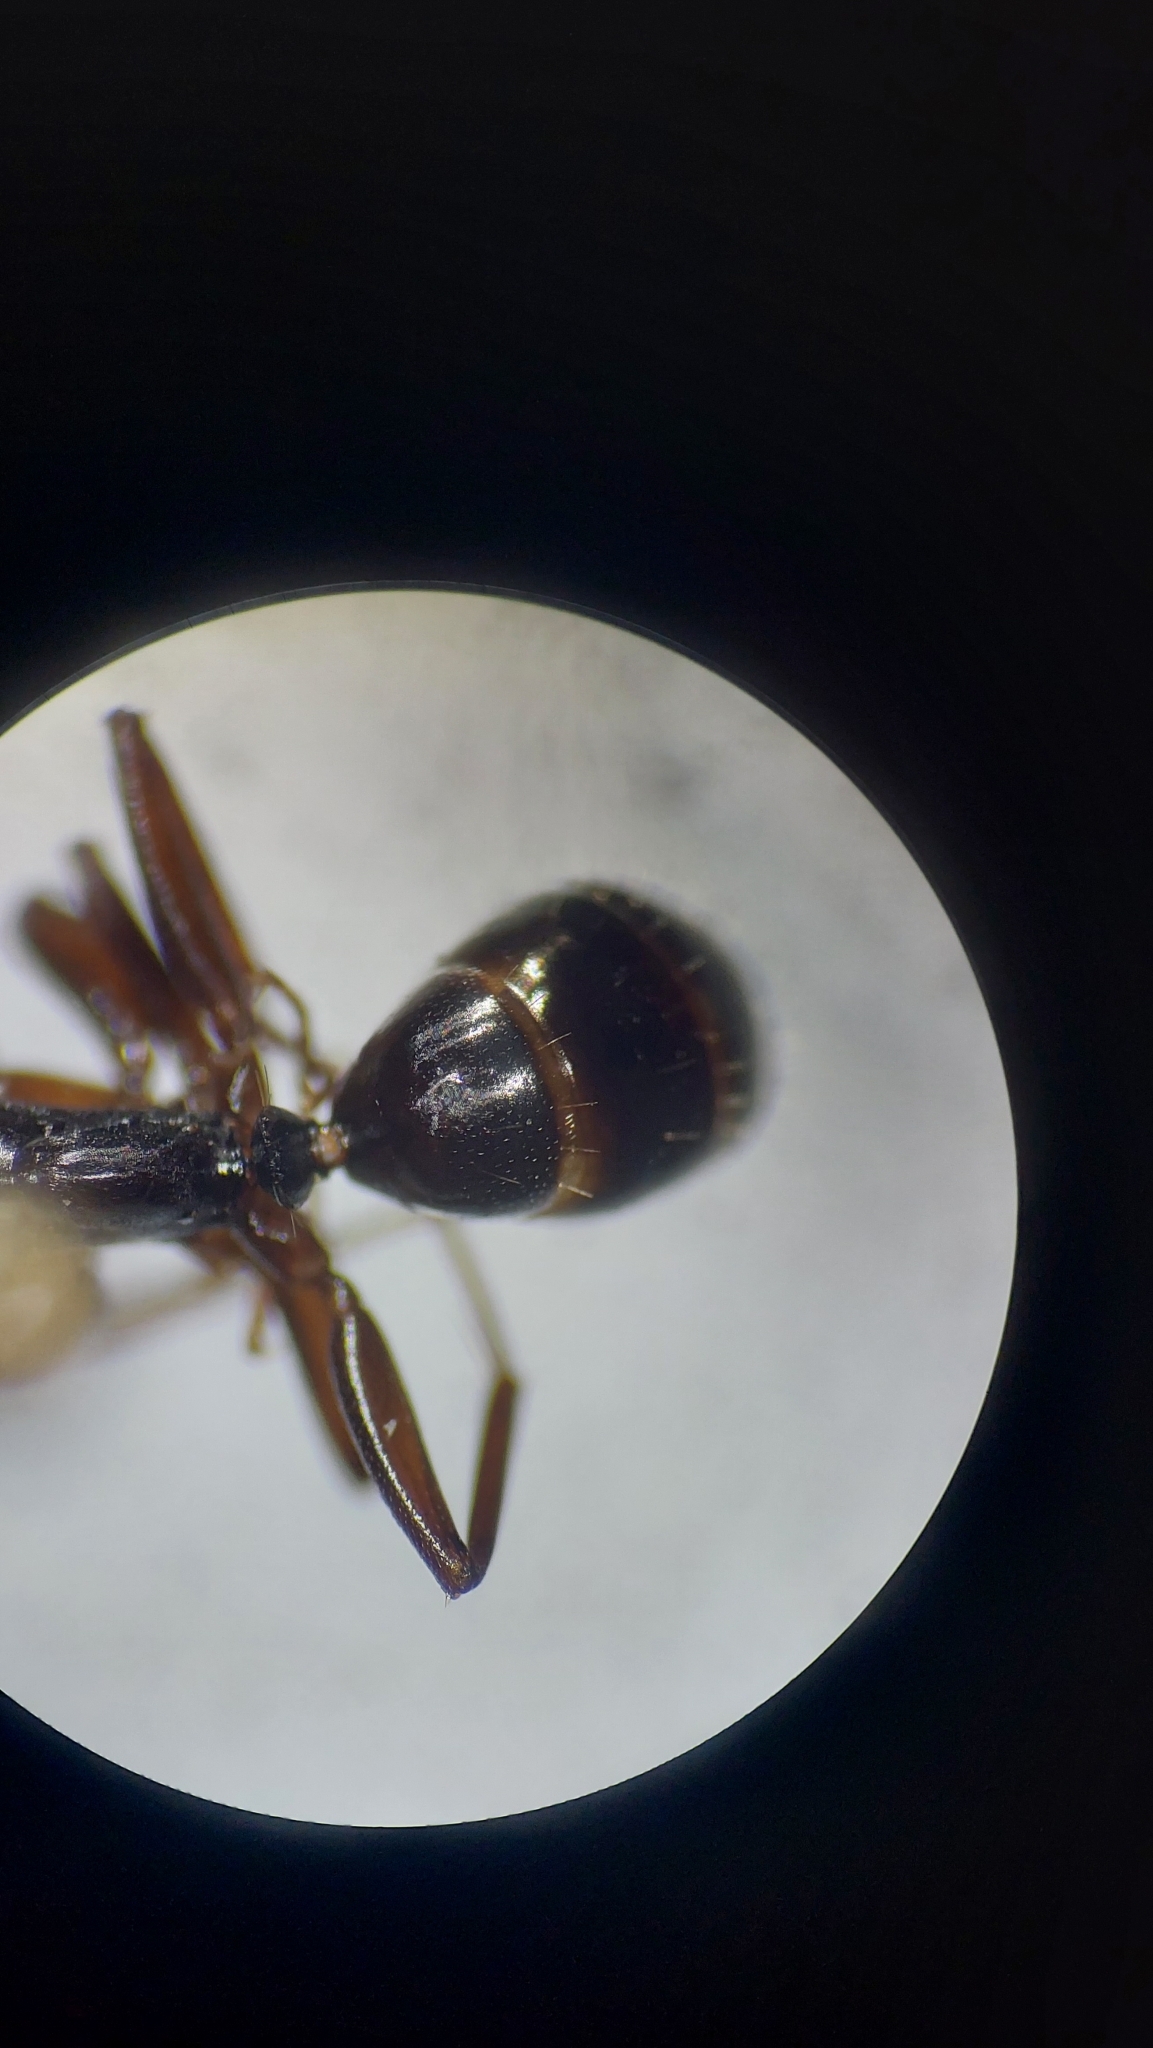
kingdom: Animalia
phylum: Arthropoda
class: Insecta
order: Hymenoptera
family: Formicidae
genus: Camponotus
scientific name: Camponotus fallax
